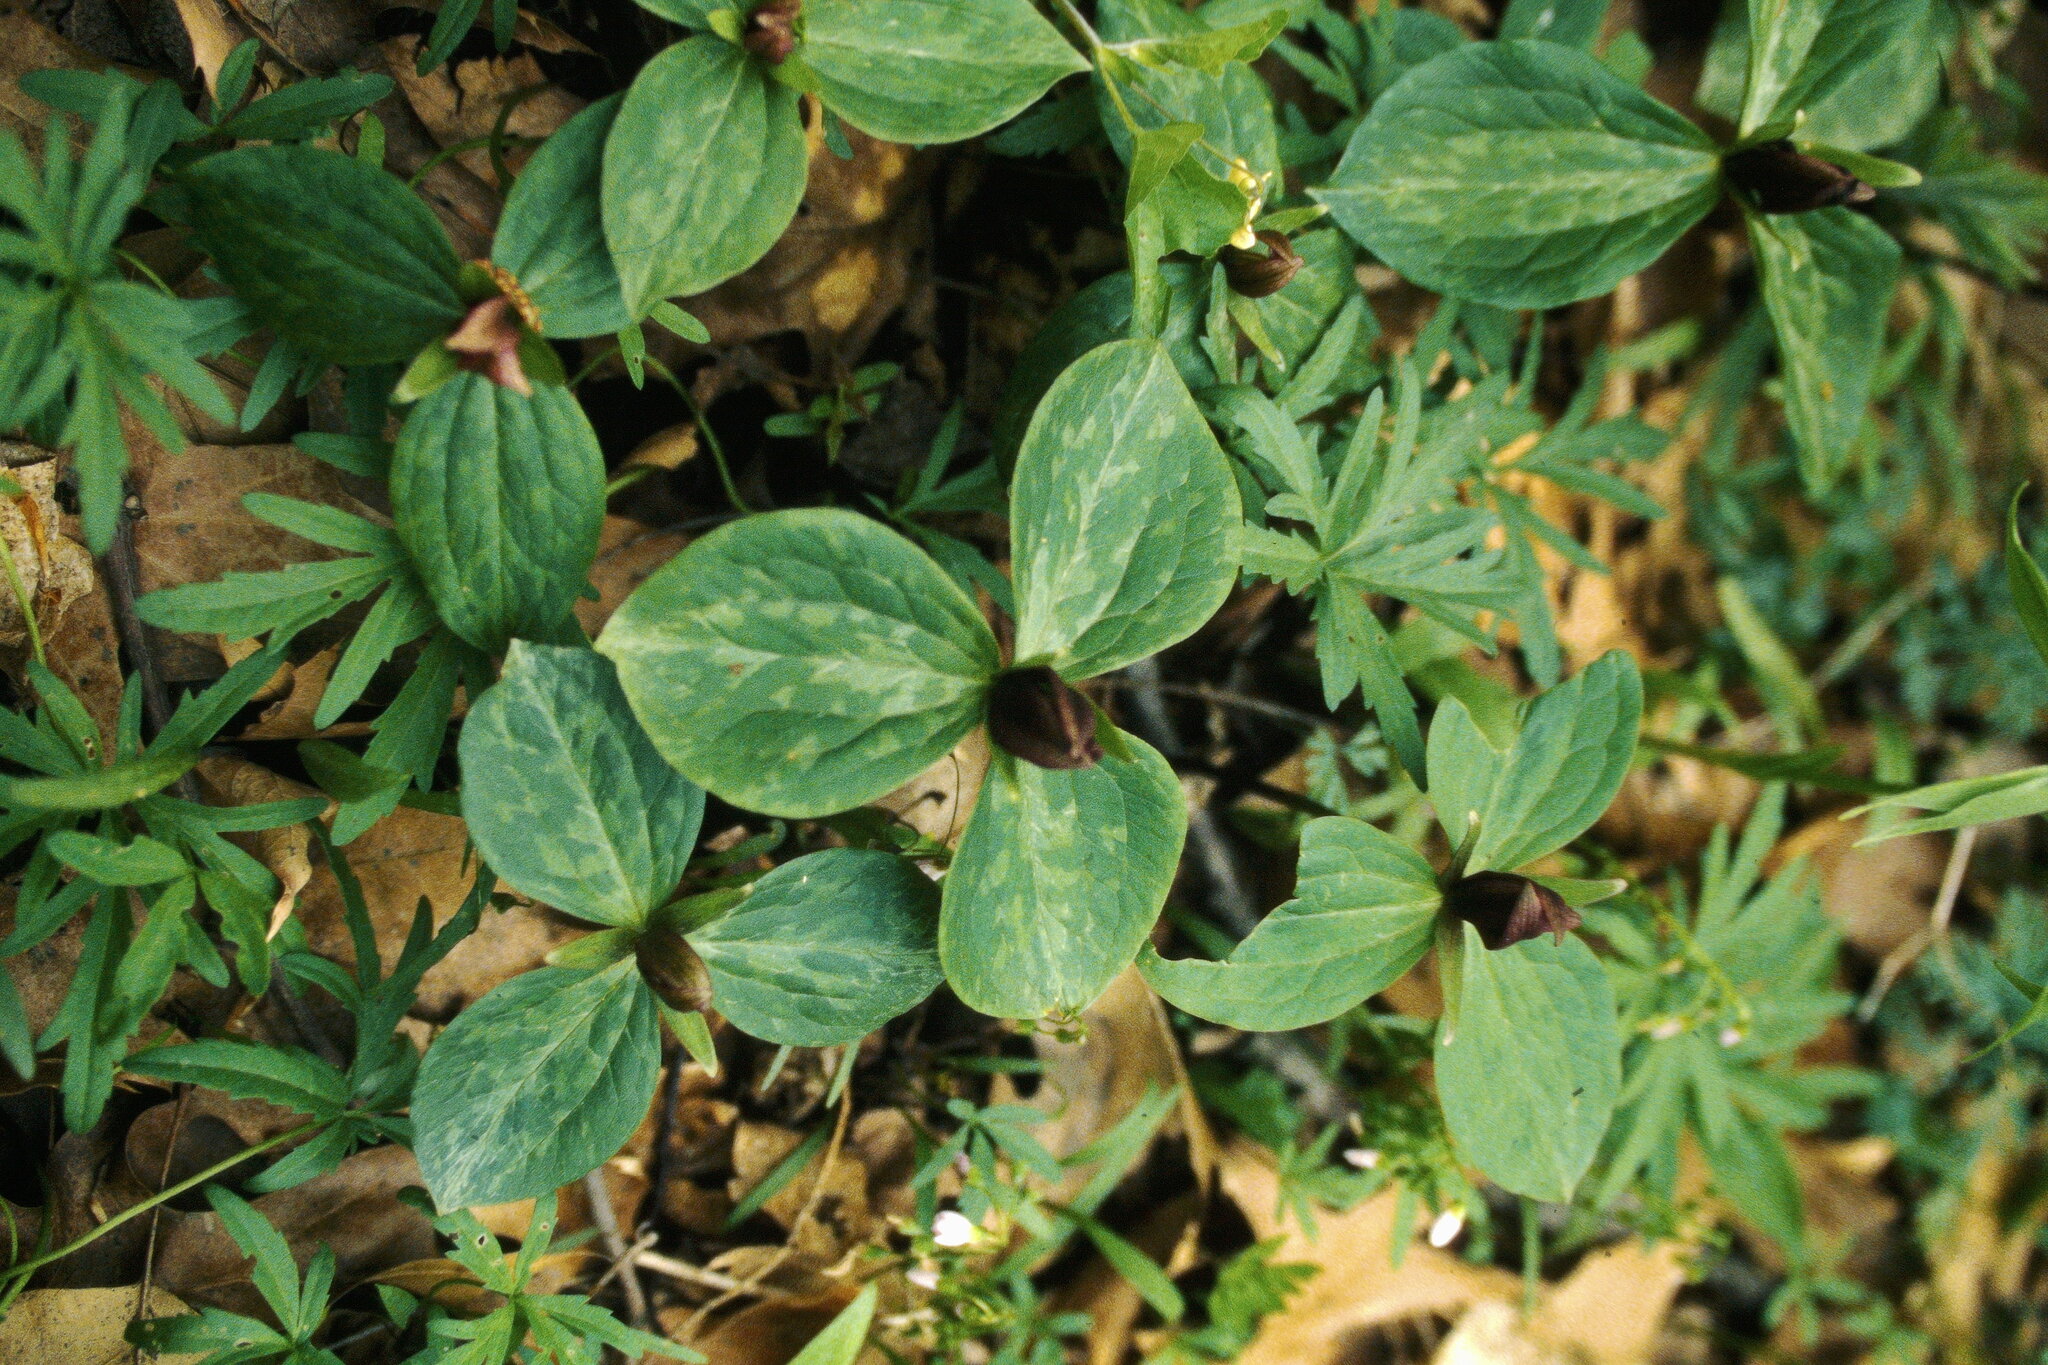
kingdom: Plantae
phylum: Tracheophyta
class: Liliopsida
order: Liliales
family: Melanthiaceae
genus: Trillium
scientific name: Trillium sessile
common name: Sessile trillium
